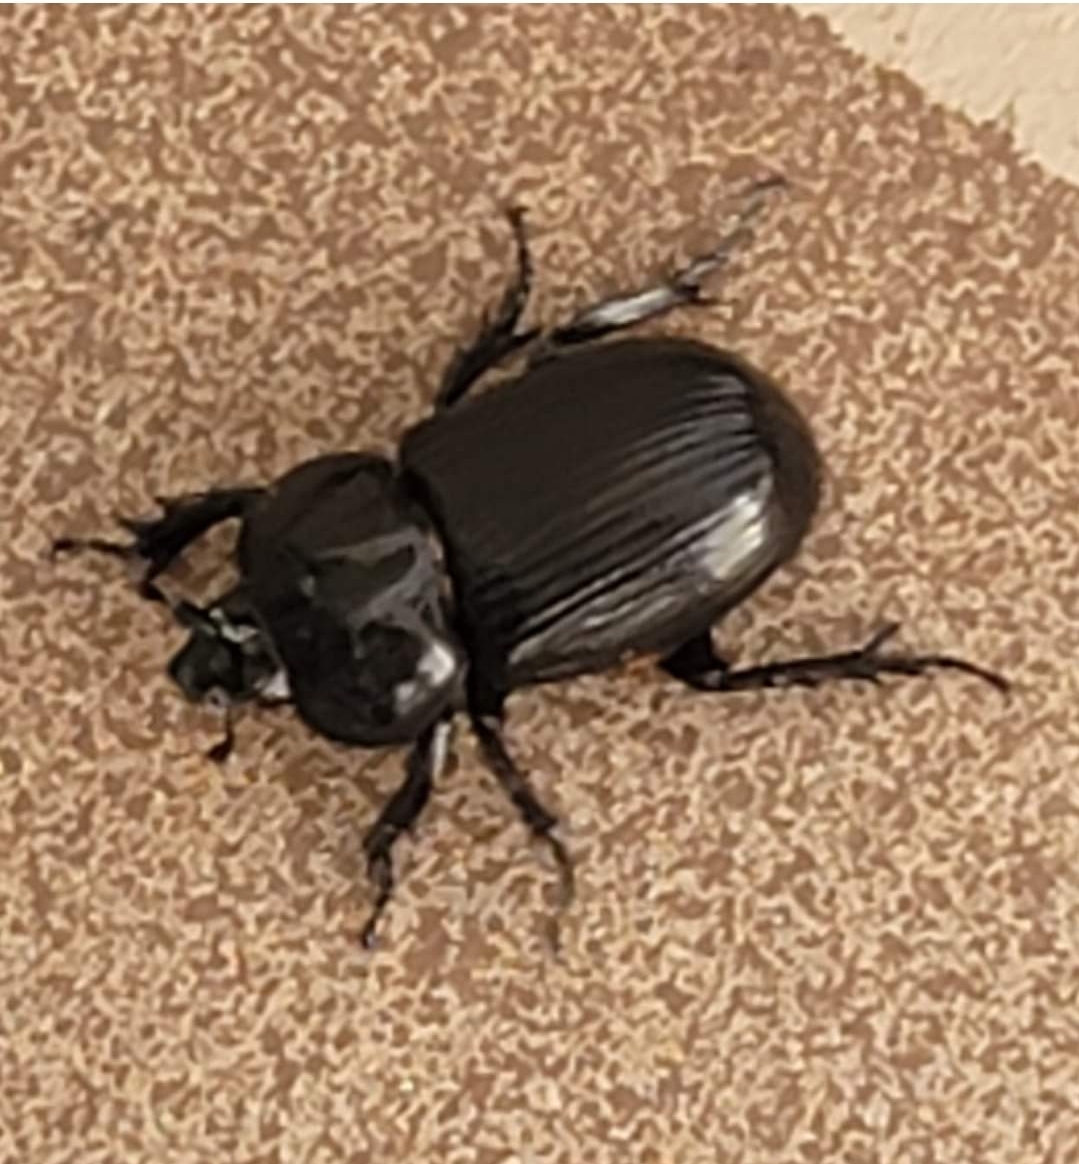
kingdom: Animalia
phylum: Arthropoda
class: Insecta
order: Coleoptera
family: Scarabaeidae
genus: Phileurus
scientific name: Phileurus truncatus
